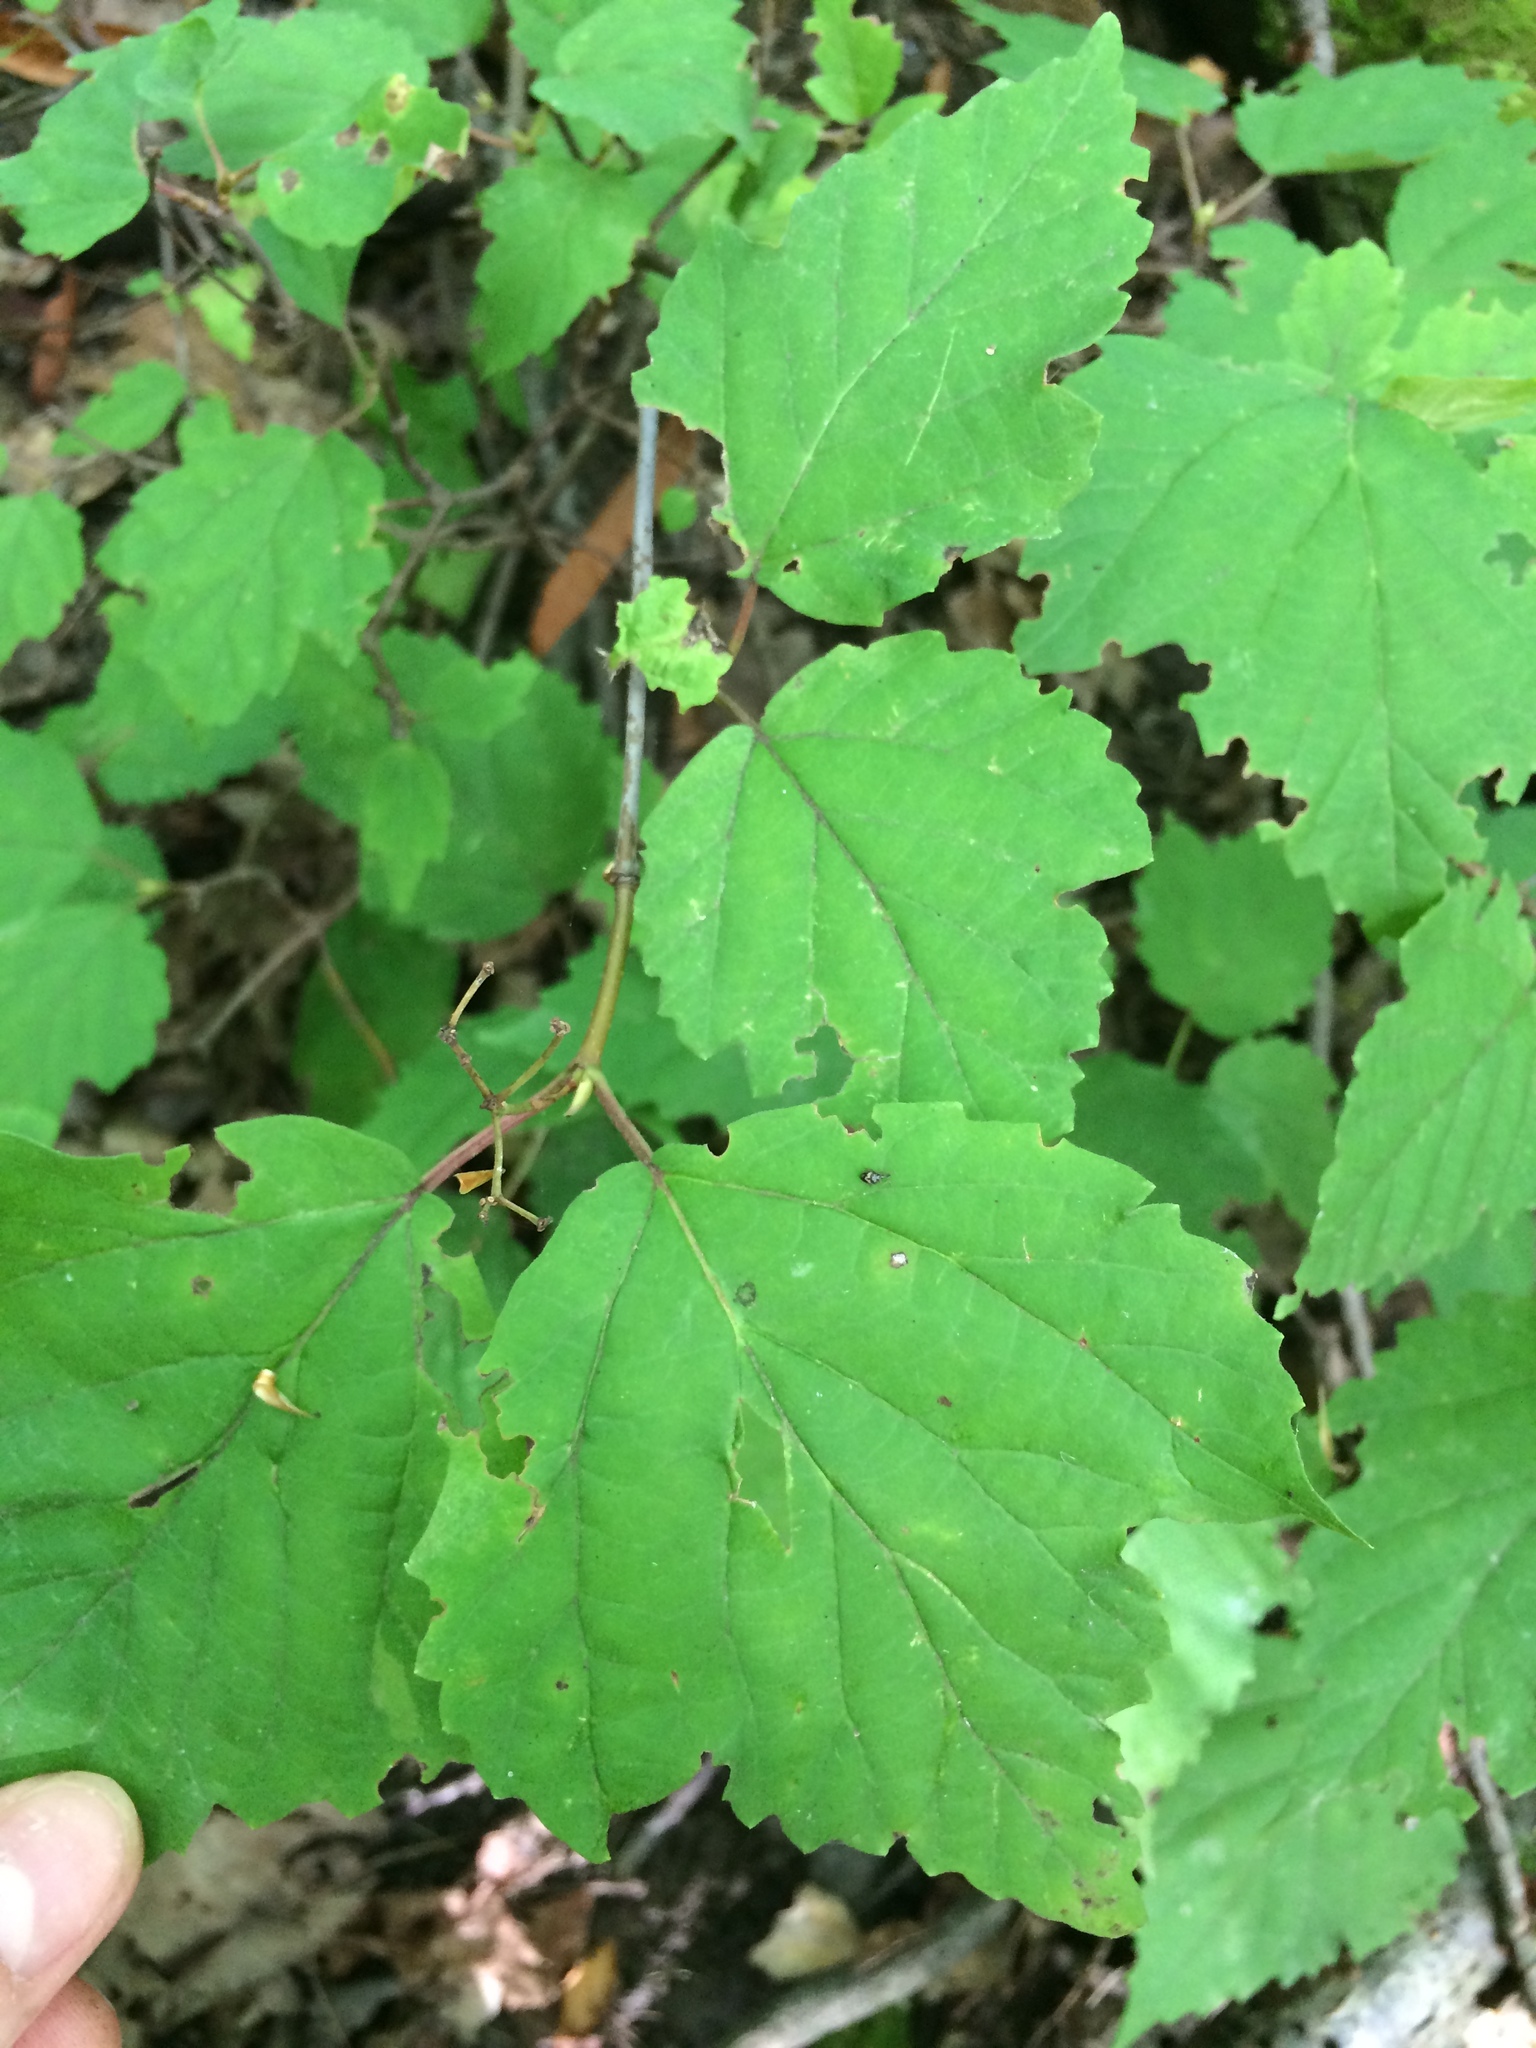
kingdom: Plantae
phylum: Tracheophyta
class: Magnoliopsida
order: Dipsacales
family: Viburnaceae
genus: Viburnum
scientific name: Viburnum acerifolium
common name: Dockmackie
